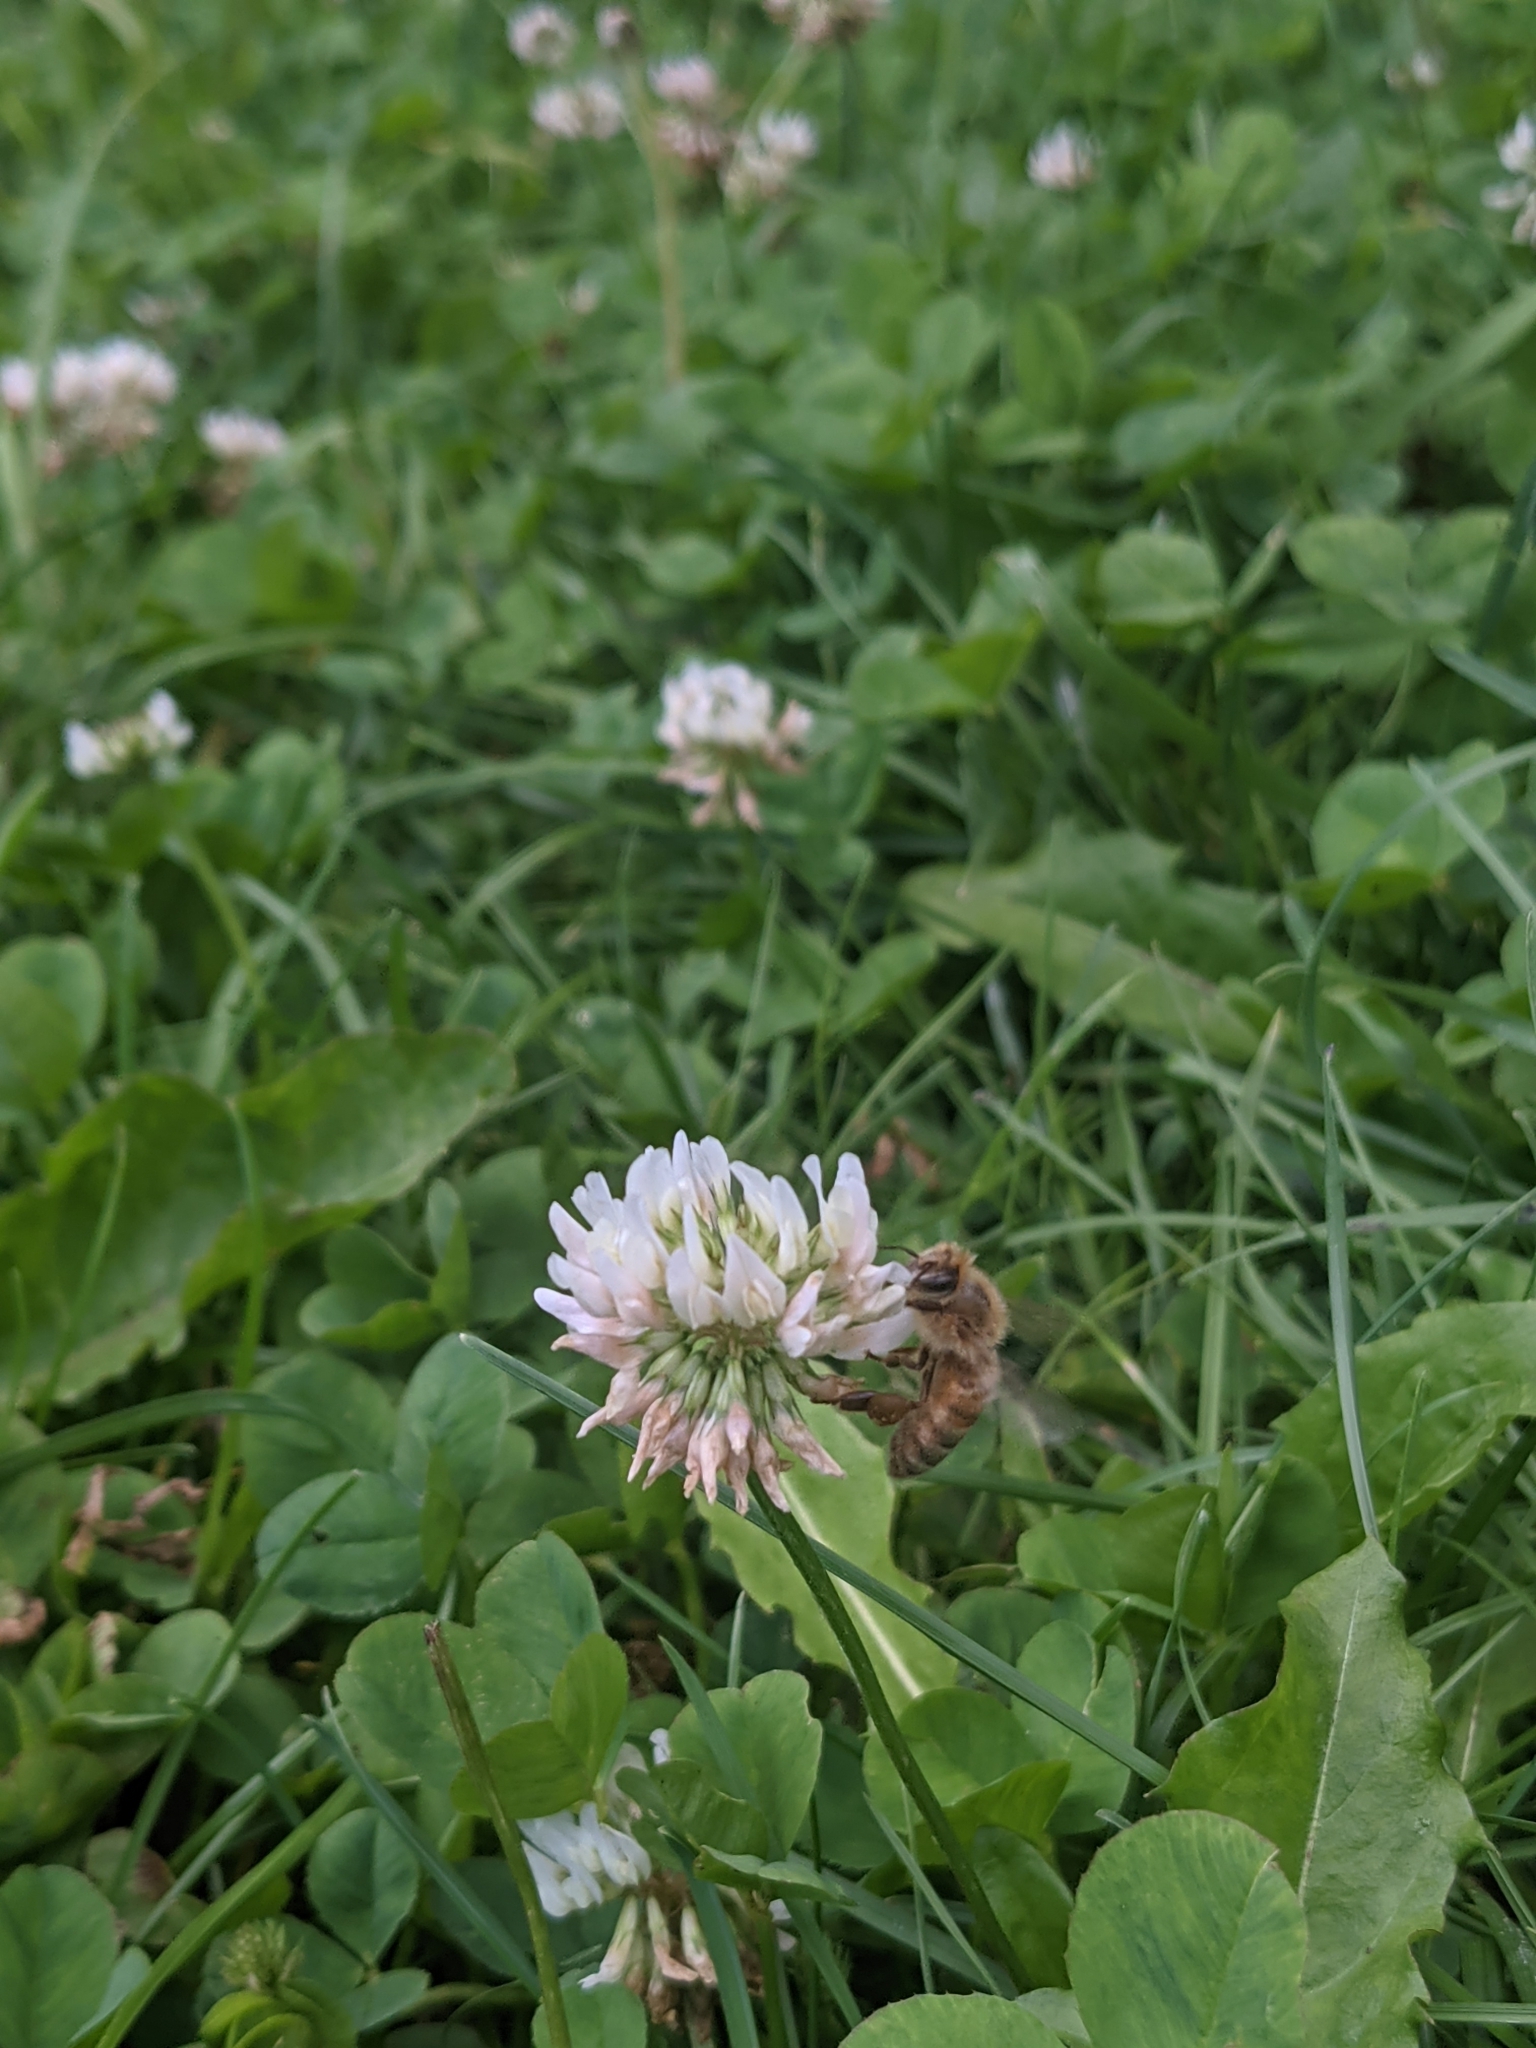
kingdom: Animalia
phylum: Arthropoda
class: Insecta
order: Hymenoptera
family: Apidae
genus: Apis
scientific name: Apis mellifera
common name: Honey bee
